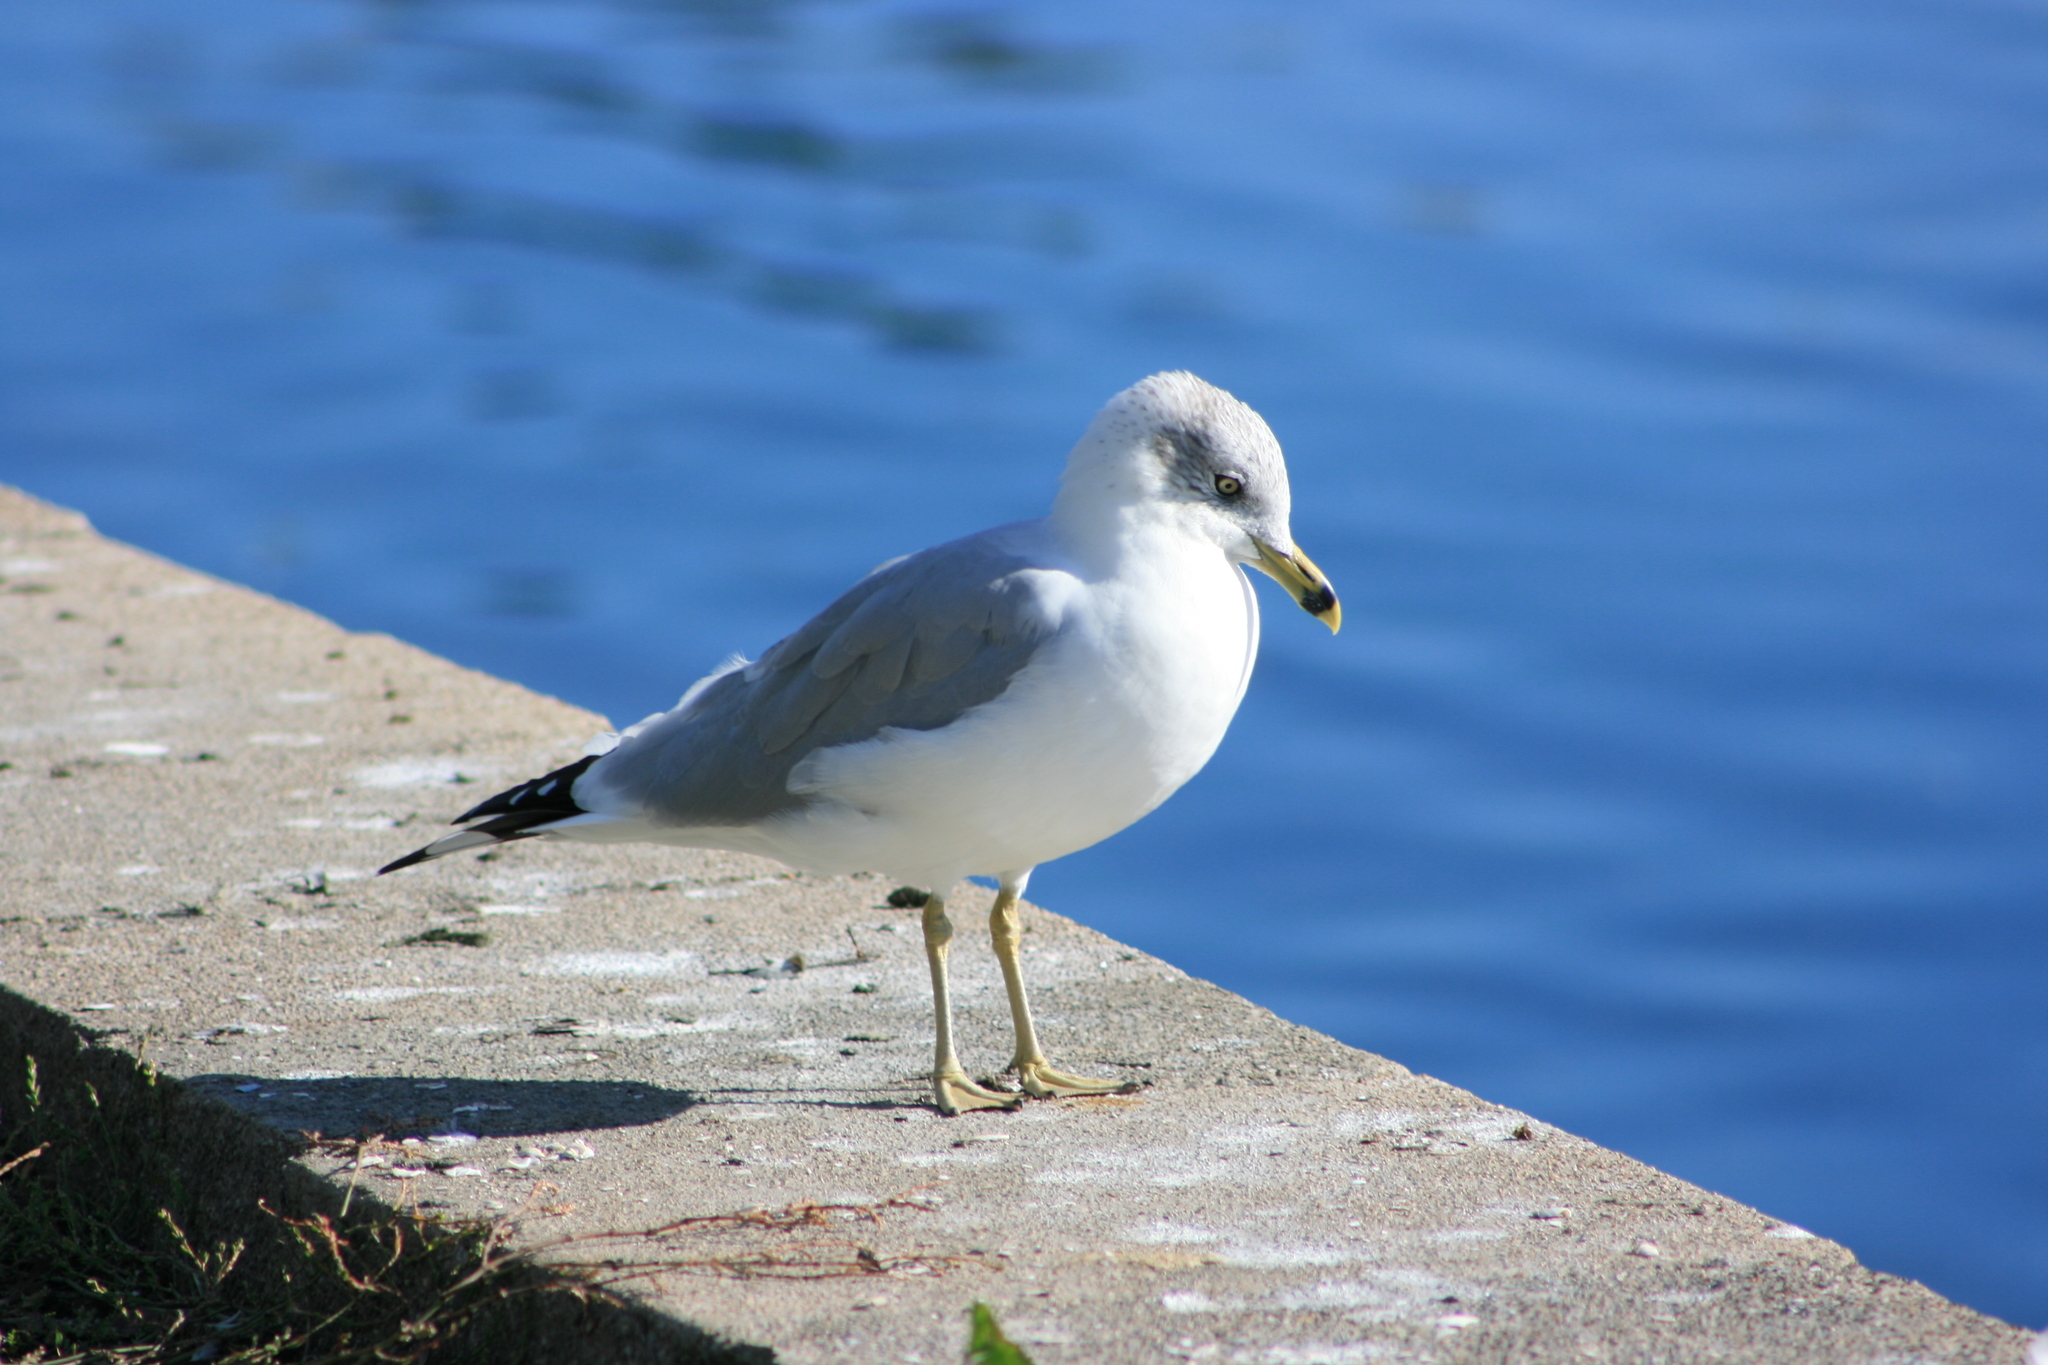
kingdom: Animalia
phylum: Chordata
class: Aves
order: Charadriiformes
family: Laridae
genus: Larus
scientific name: Larus delawarensis
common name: Ring-billed gull
